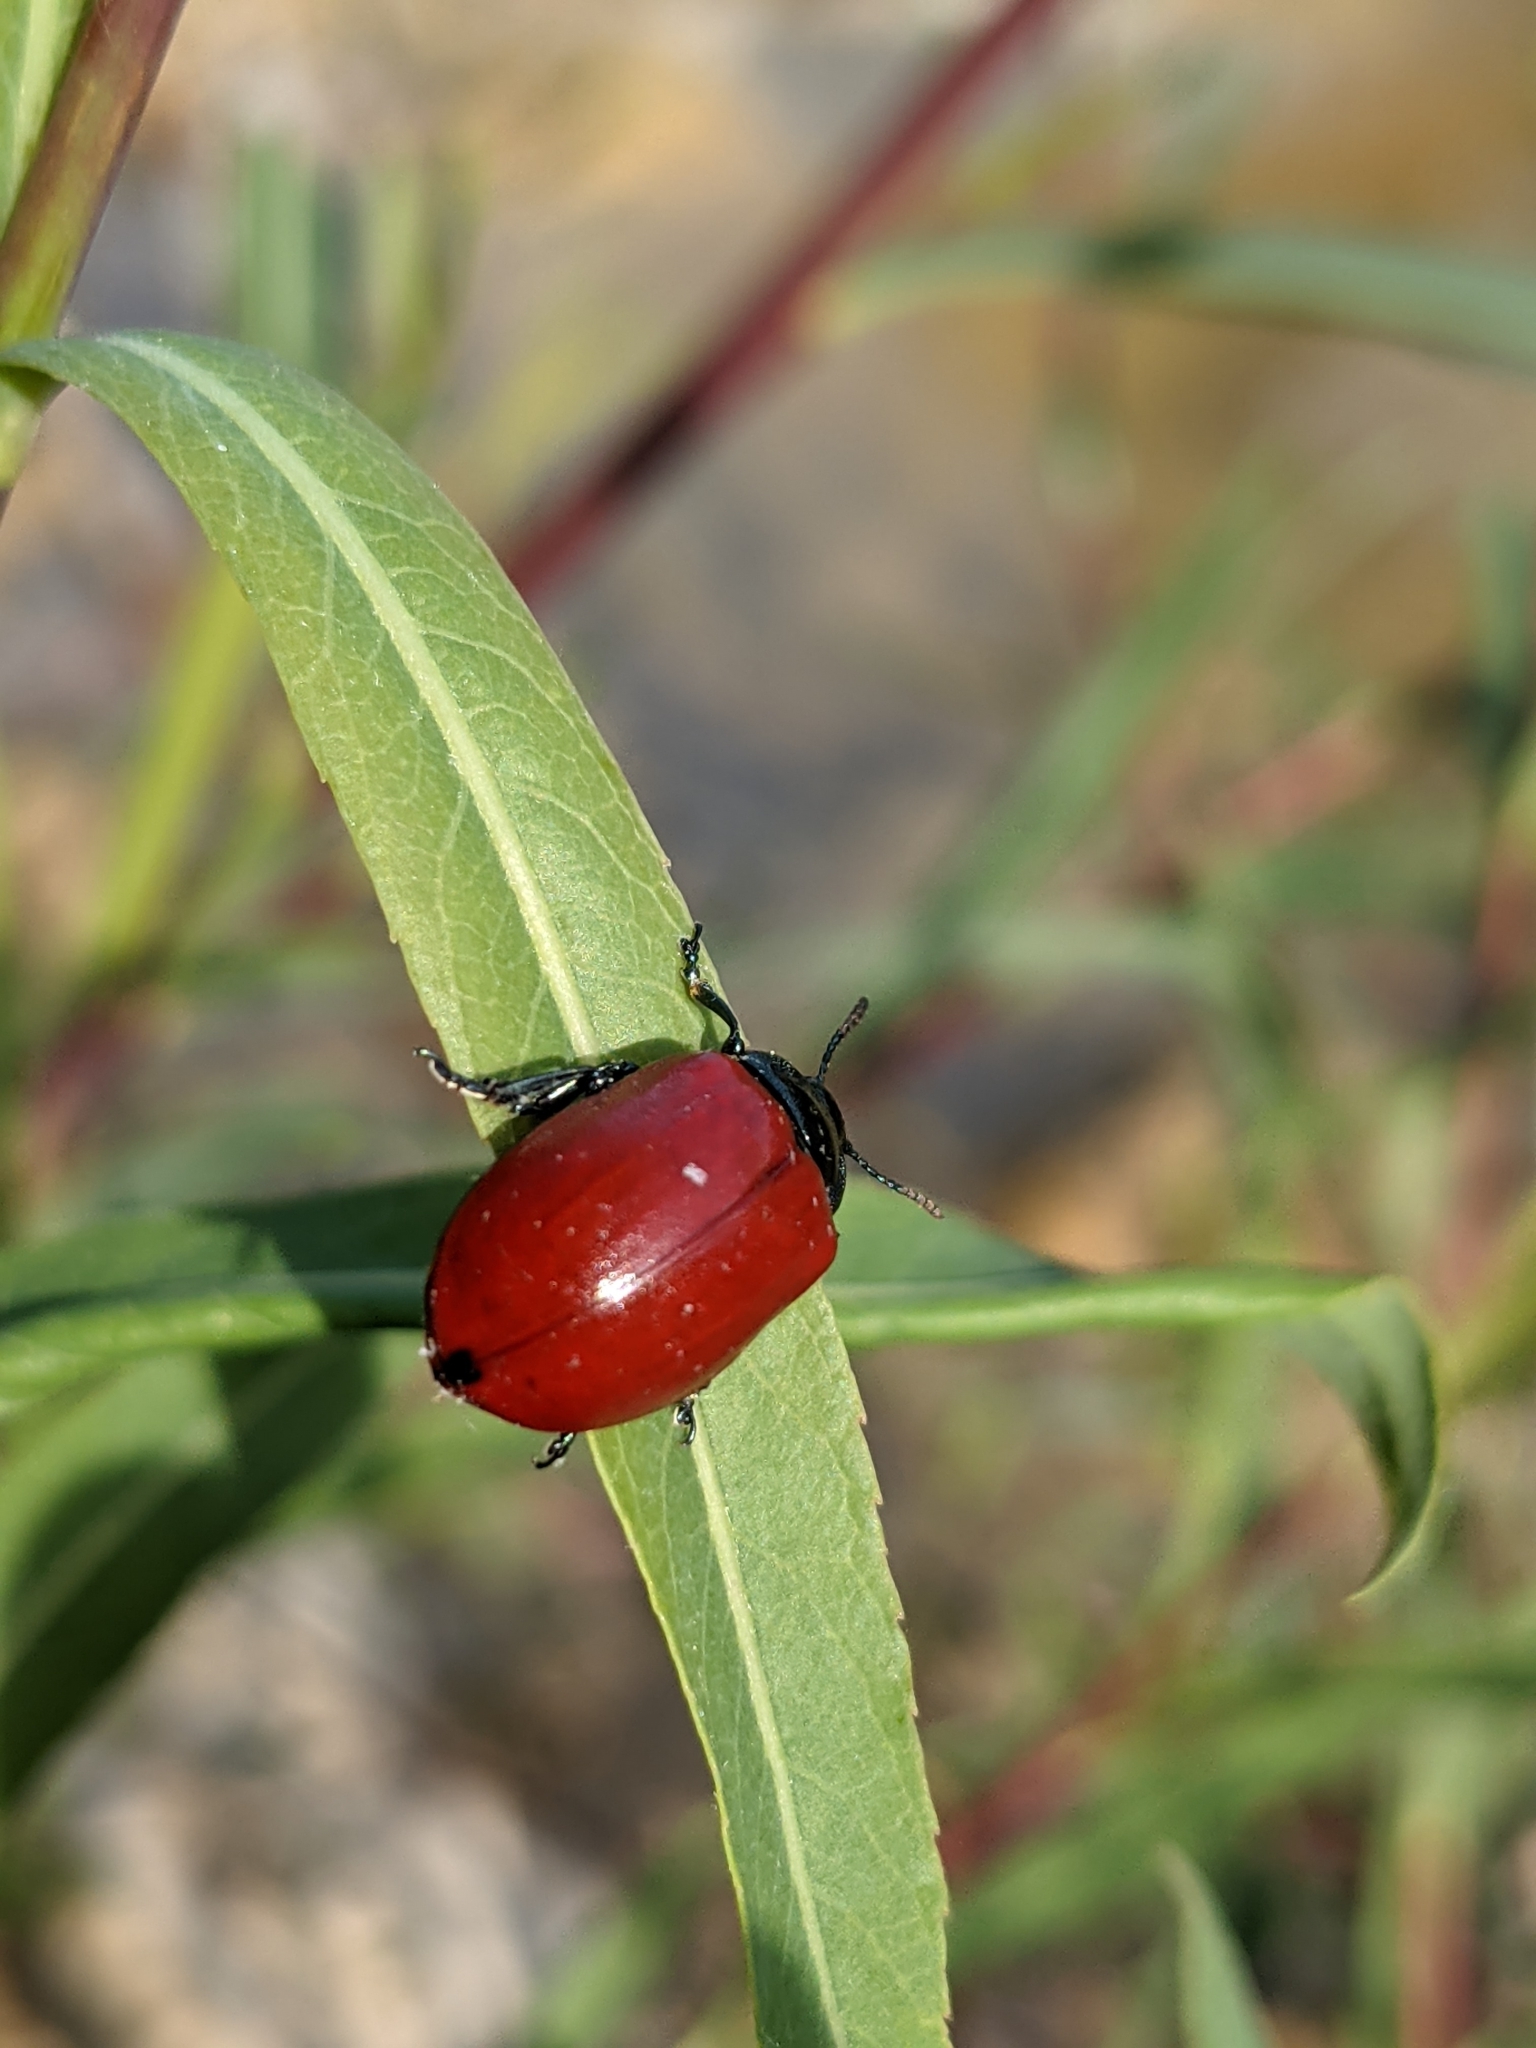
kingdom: Animalia
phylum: Arthropoda
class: Insecta
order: Coleoptera
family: Chrysomelidae
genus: Chrysomela
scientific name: Chrysomela populi
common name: Red poplar leaf beetle
